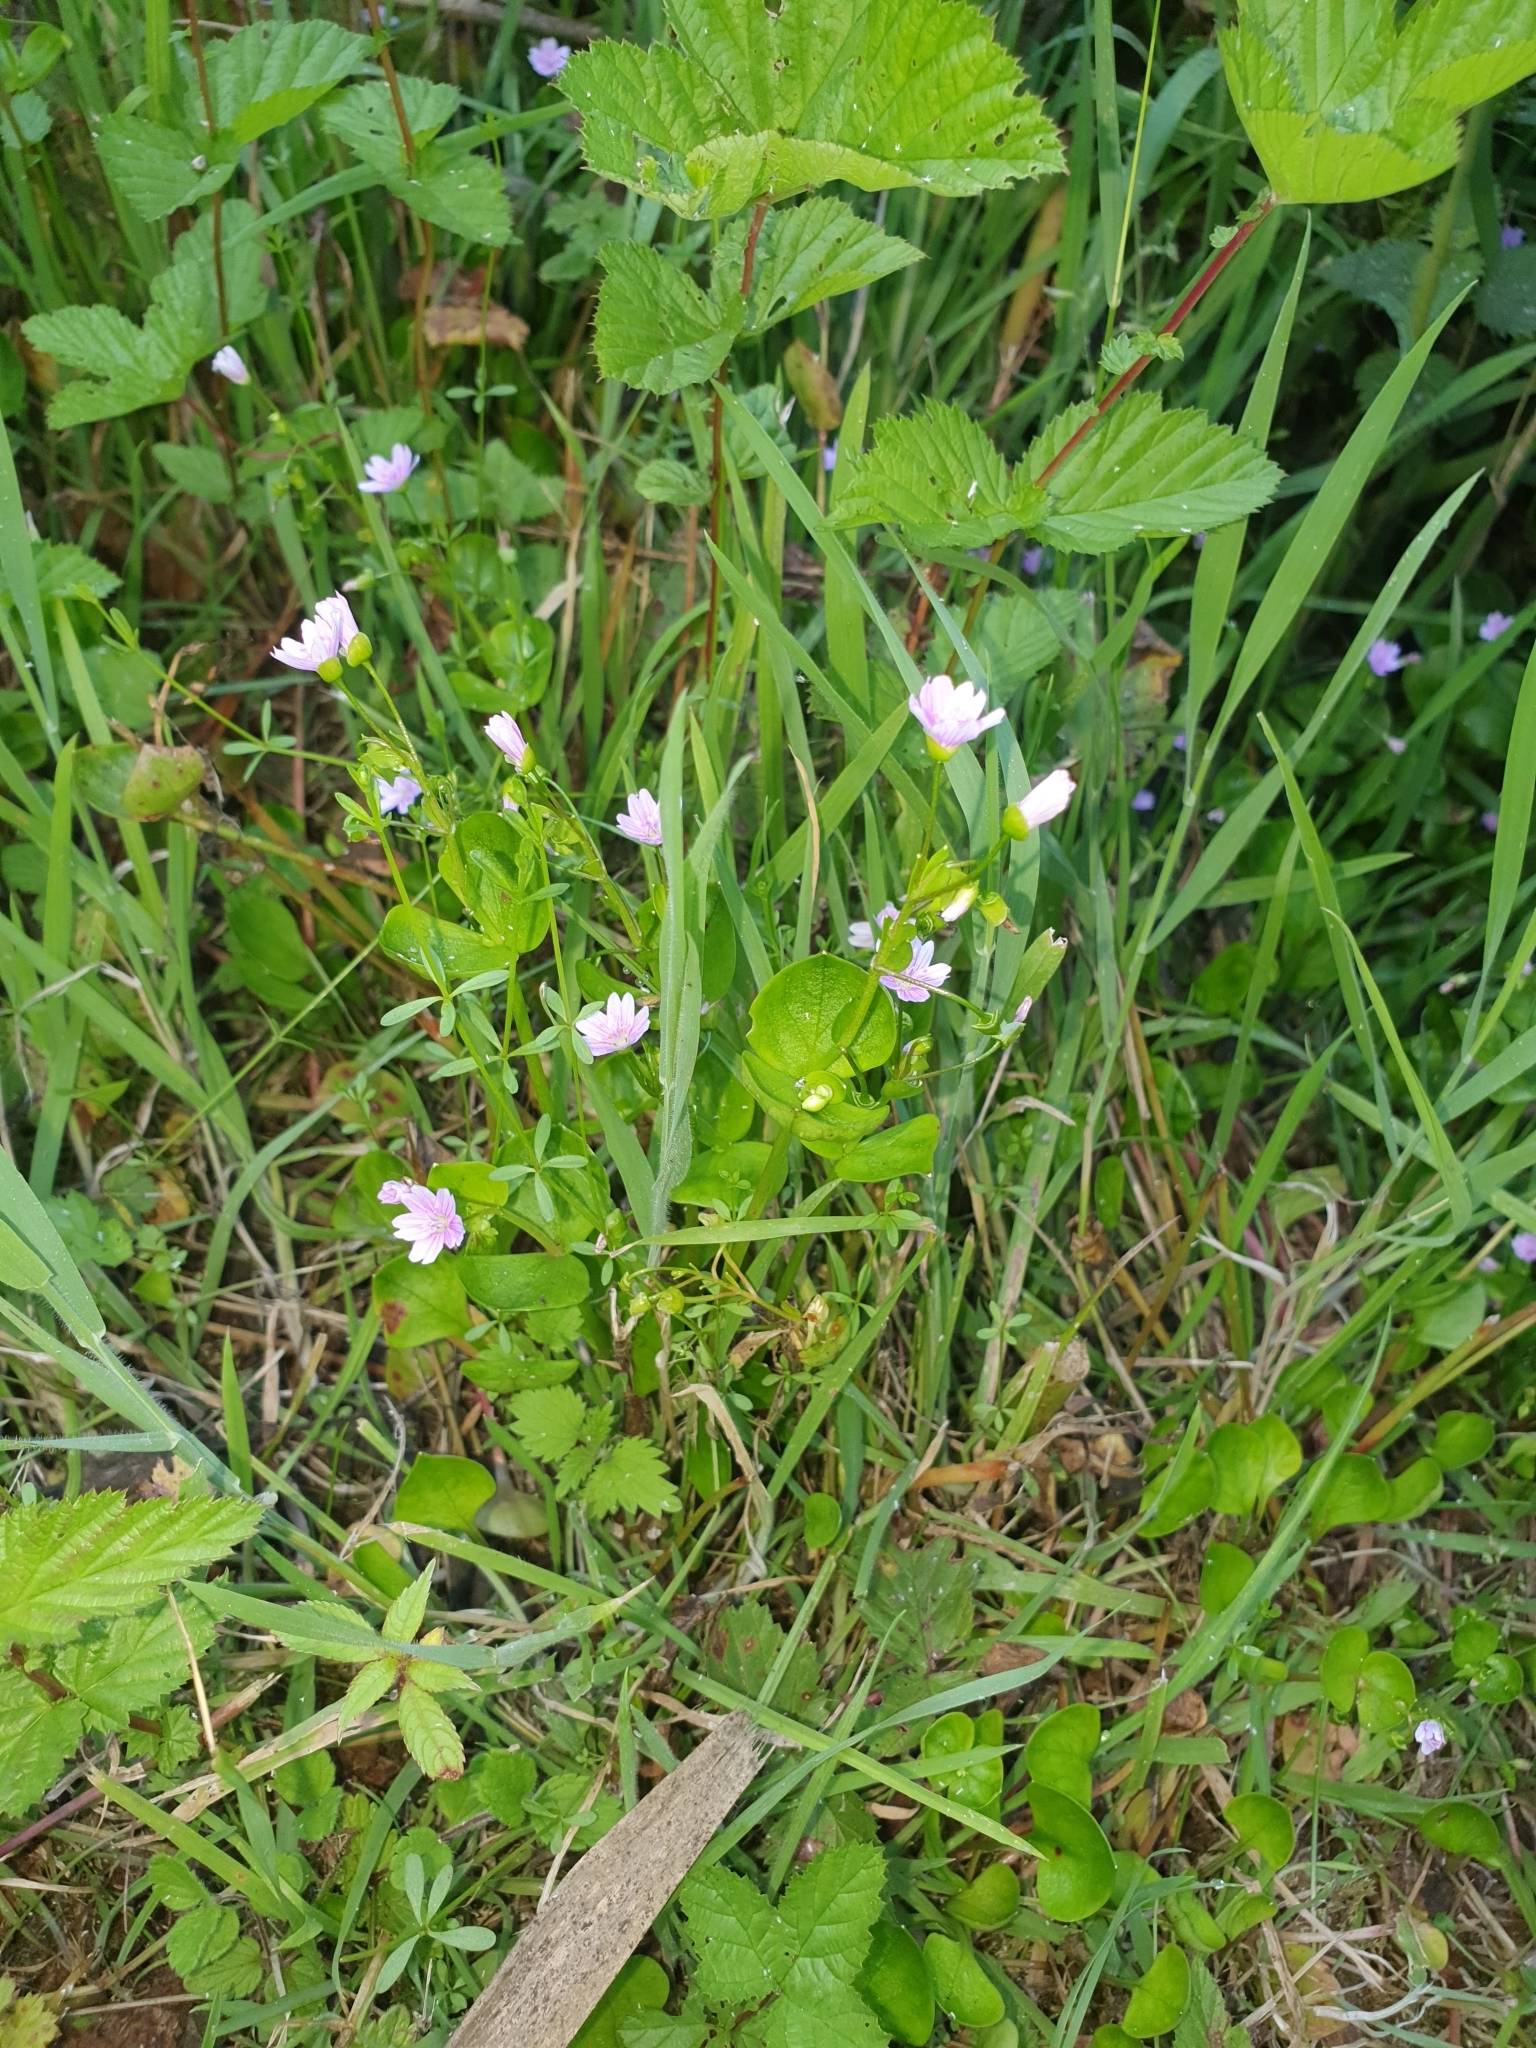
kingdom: Plantae
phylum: Tracheophyta
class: Magnoliopsida
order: Caryophyllales
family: Montiaceae
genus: Claytonia
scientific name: Claytonia sibirica
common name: Pink purslane
